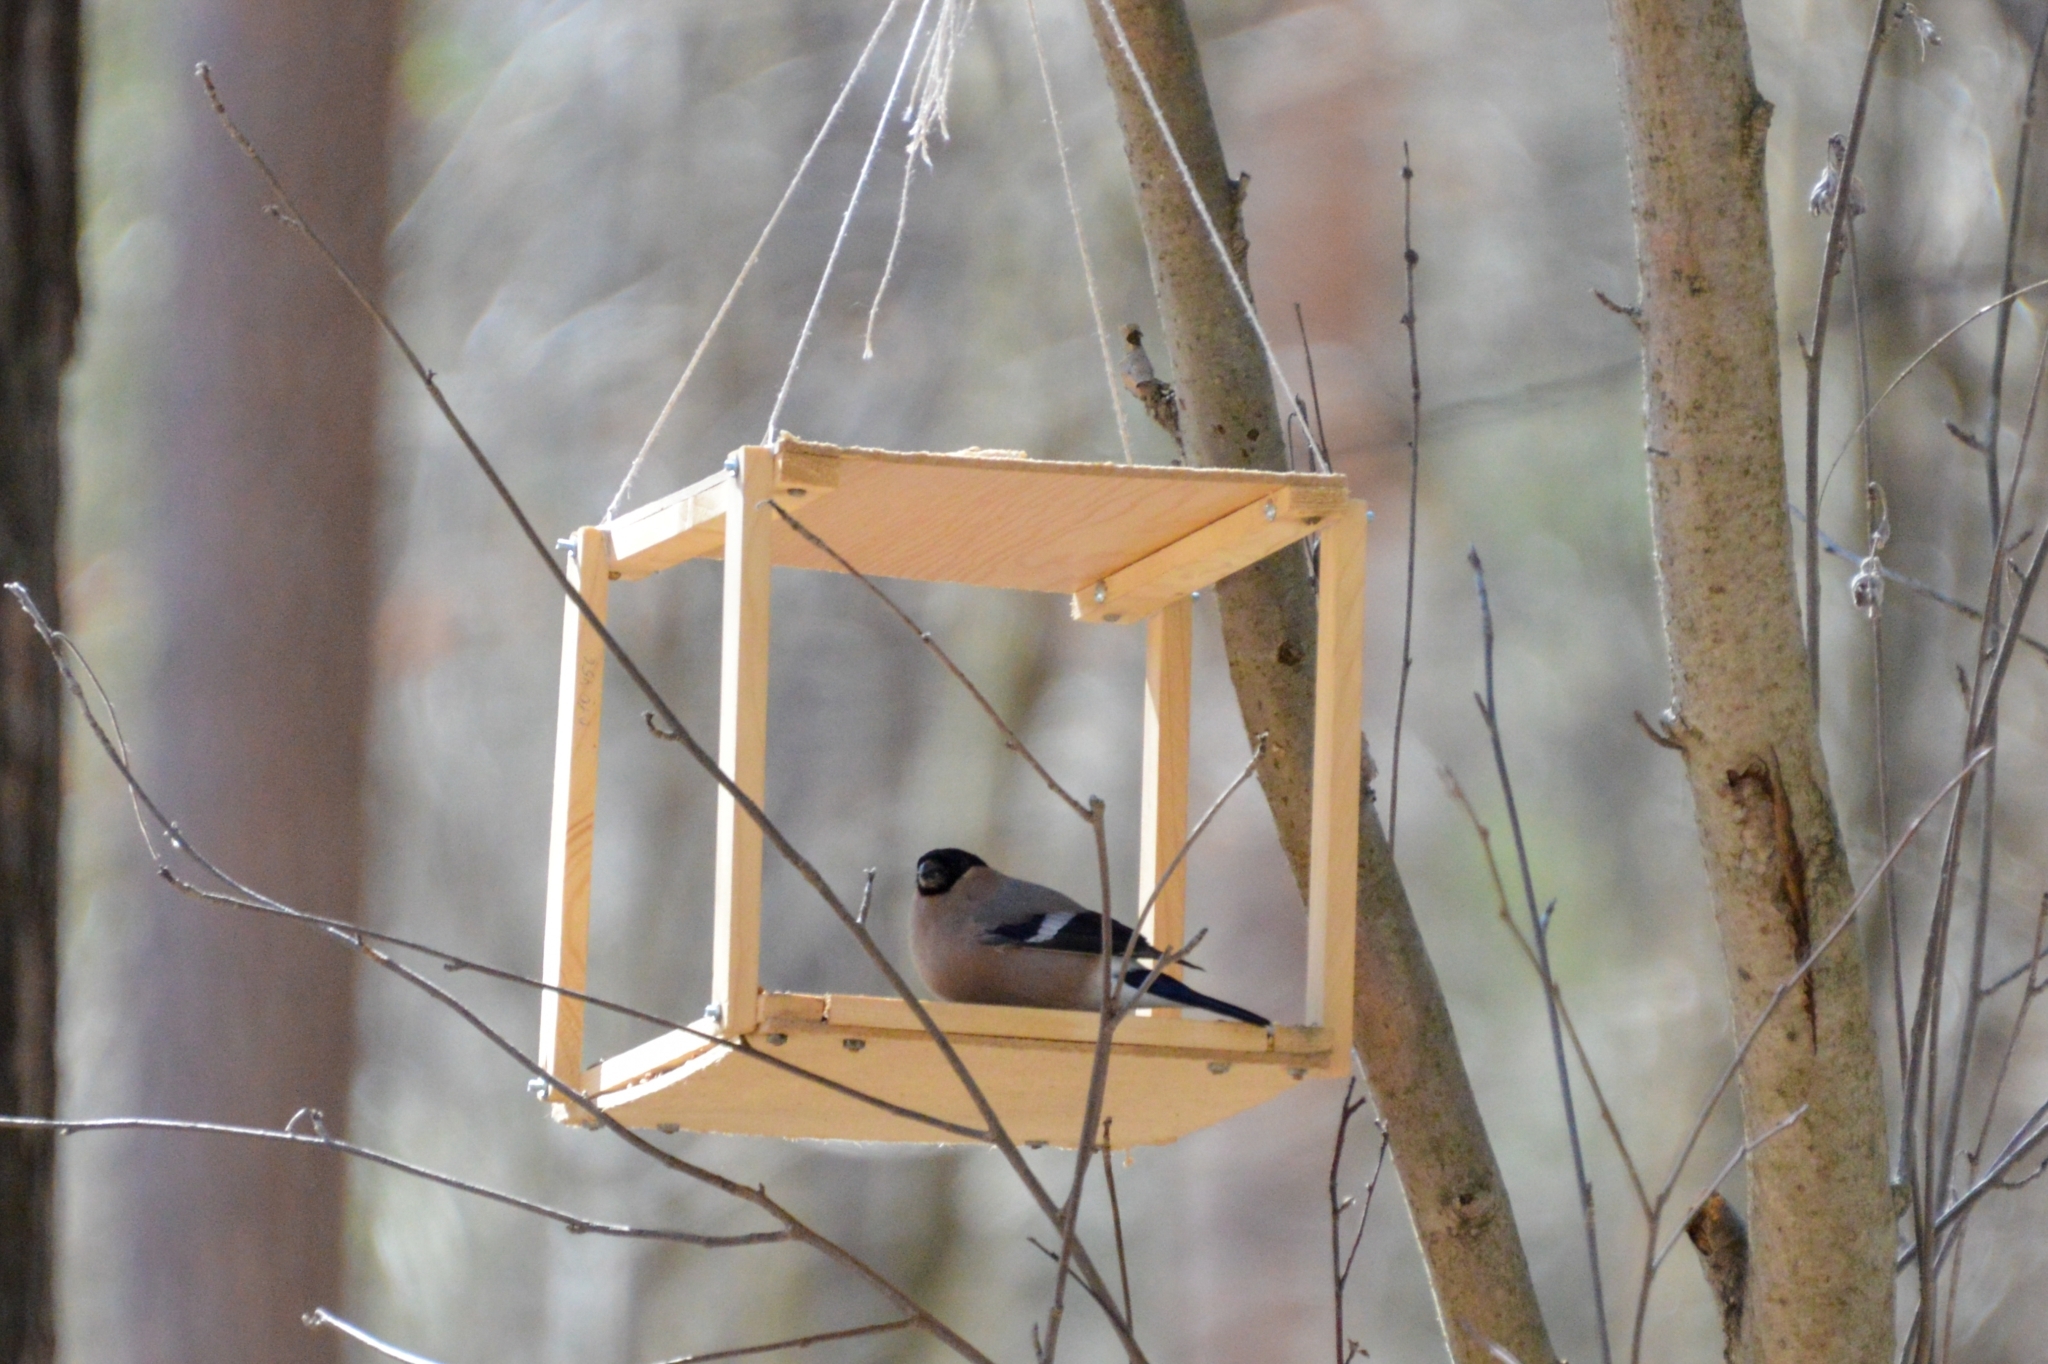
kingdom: Animalia
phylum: Chordata
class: Aves
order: Passeriformes
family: Fringillidae
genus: Pyrrhula
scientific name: Pyrrhula pyrrhula
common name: Eurasian bullfinch
